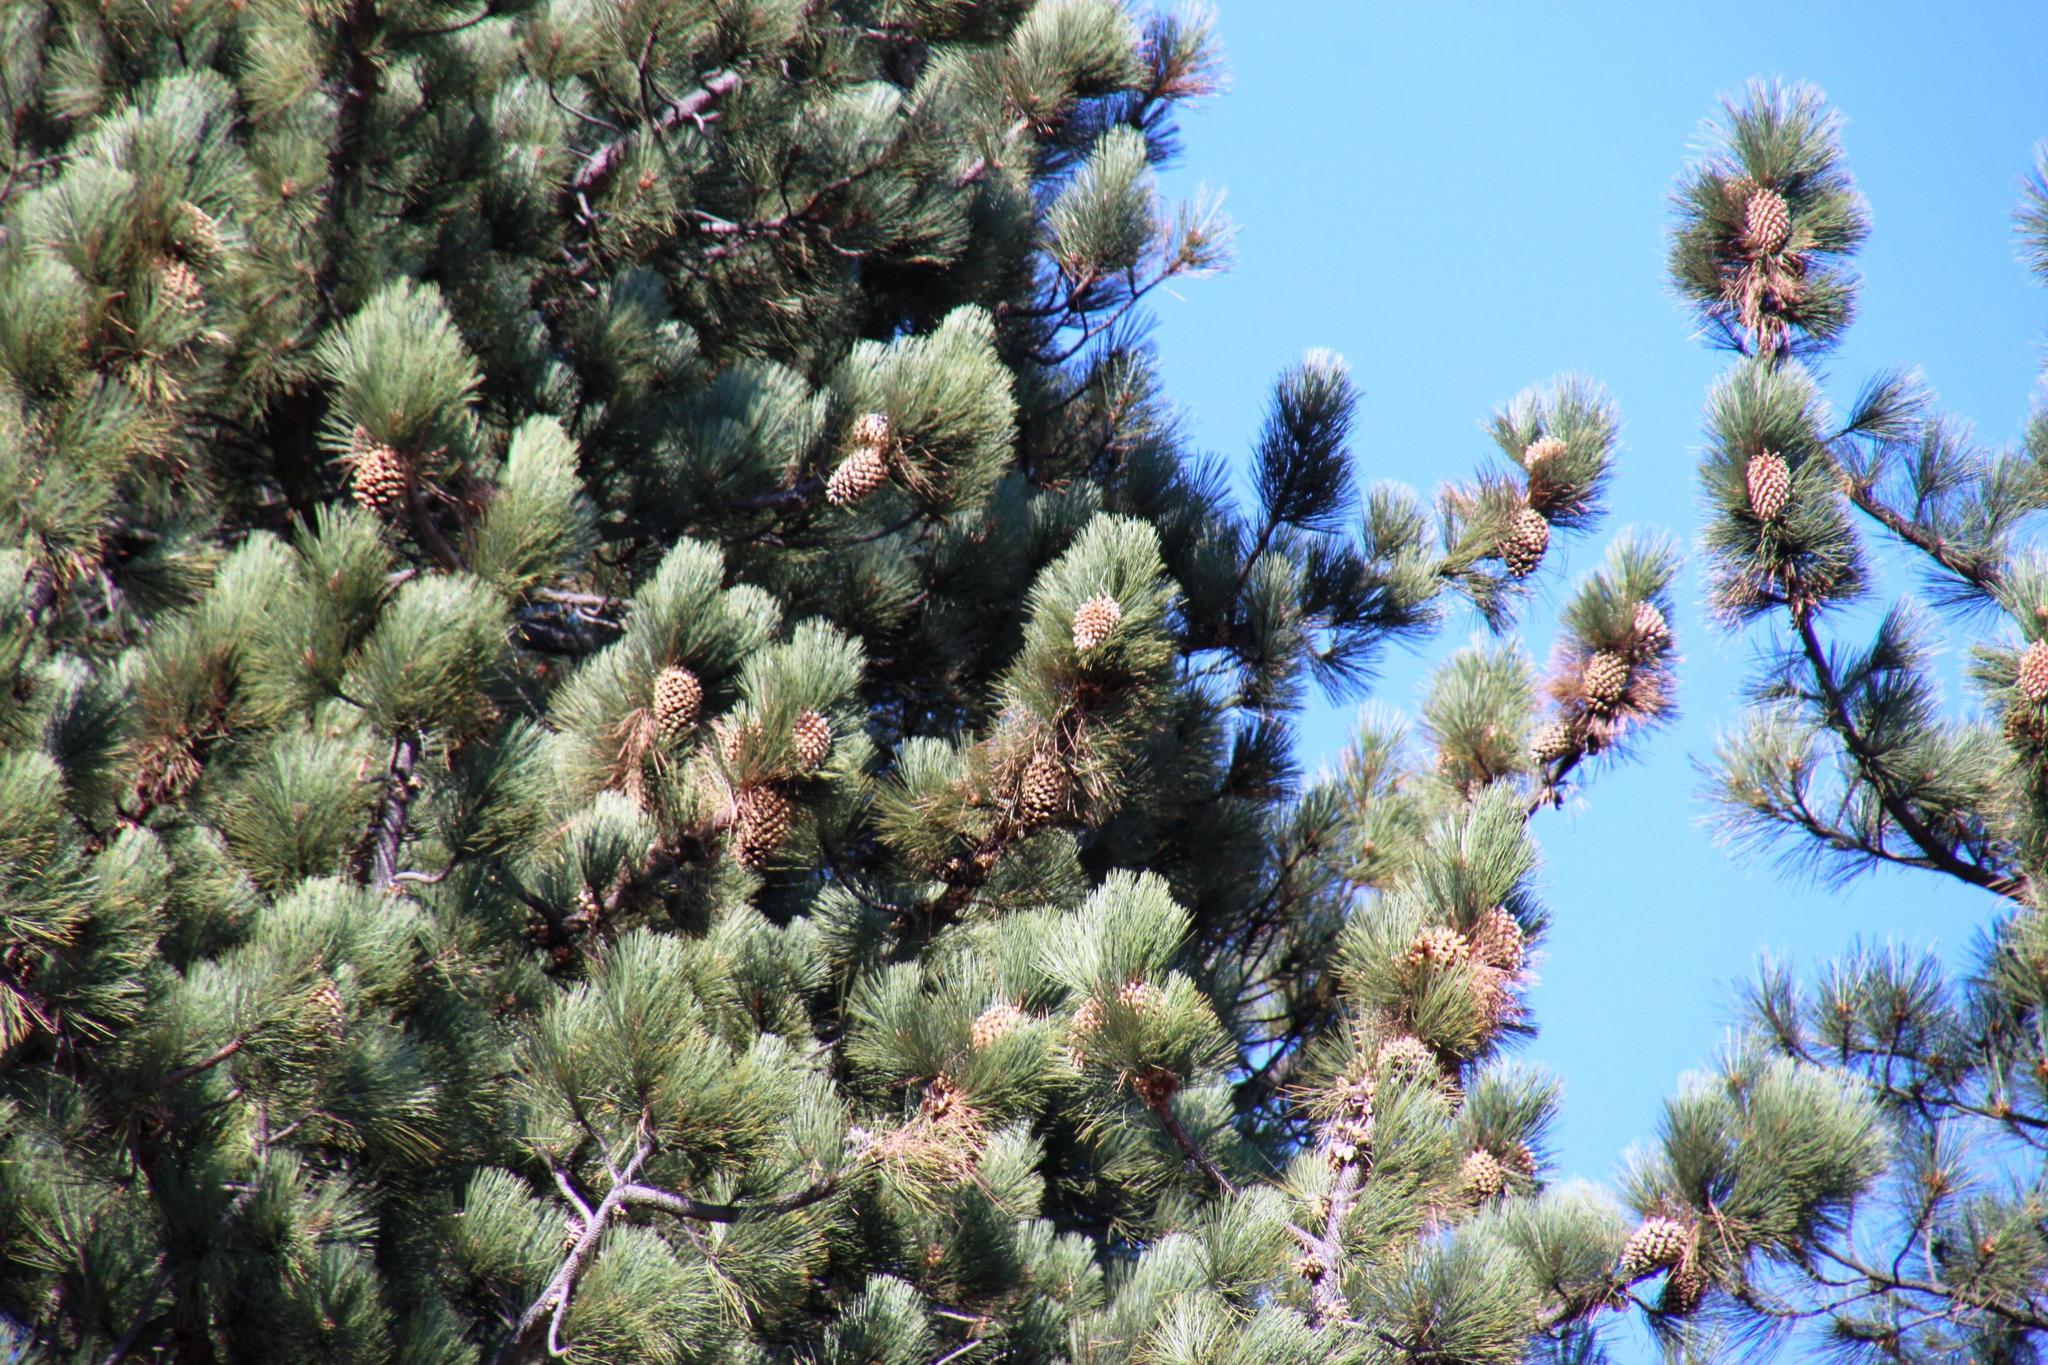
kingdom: Plantae
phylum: Tracheophyta
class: Pinopsida
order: Pinales
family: Pinaceae
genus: Pinus
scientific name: Pinus coulteri
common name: Coulter pine
